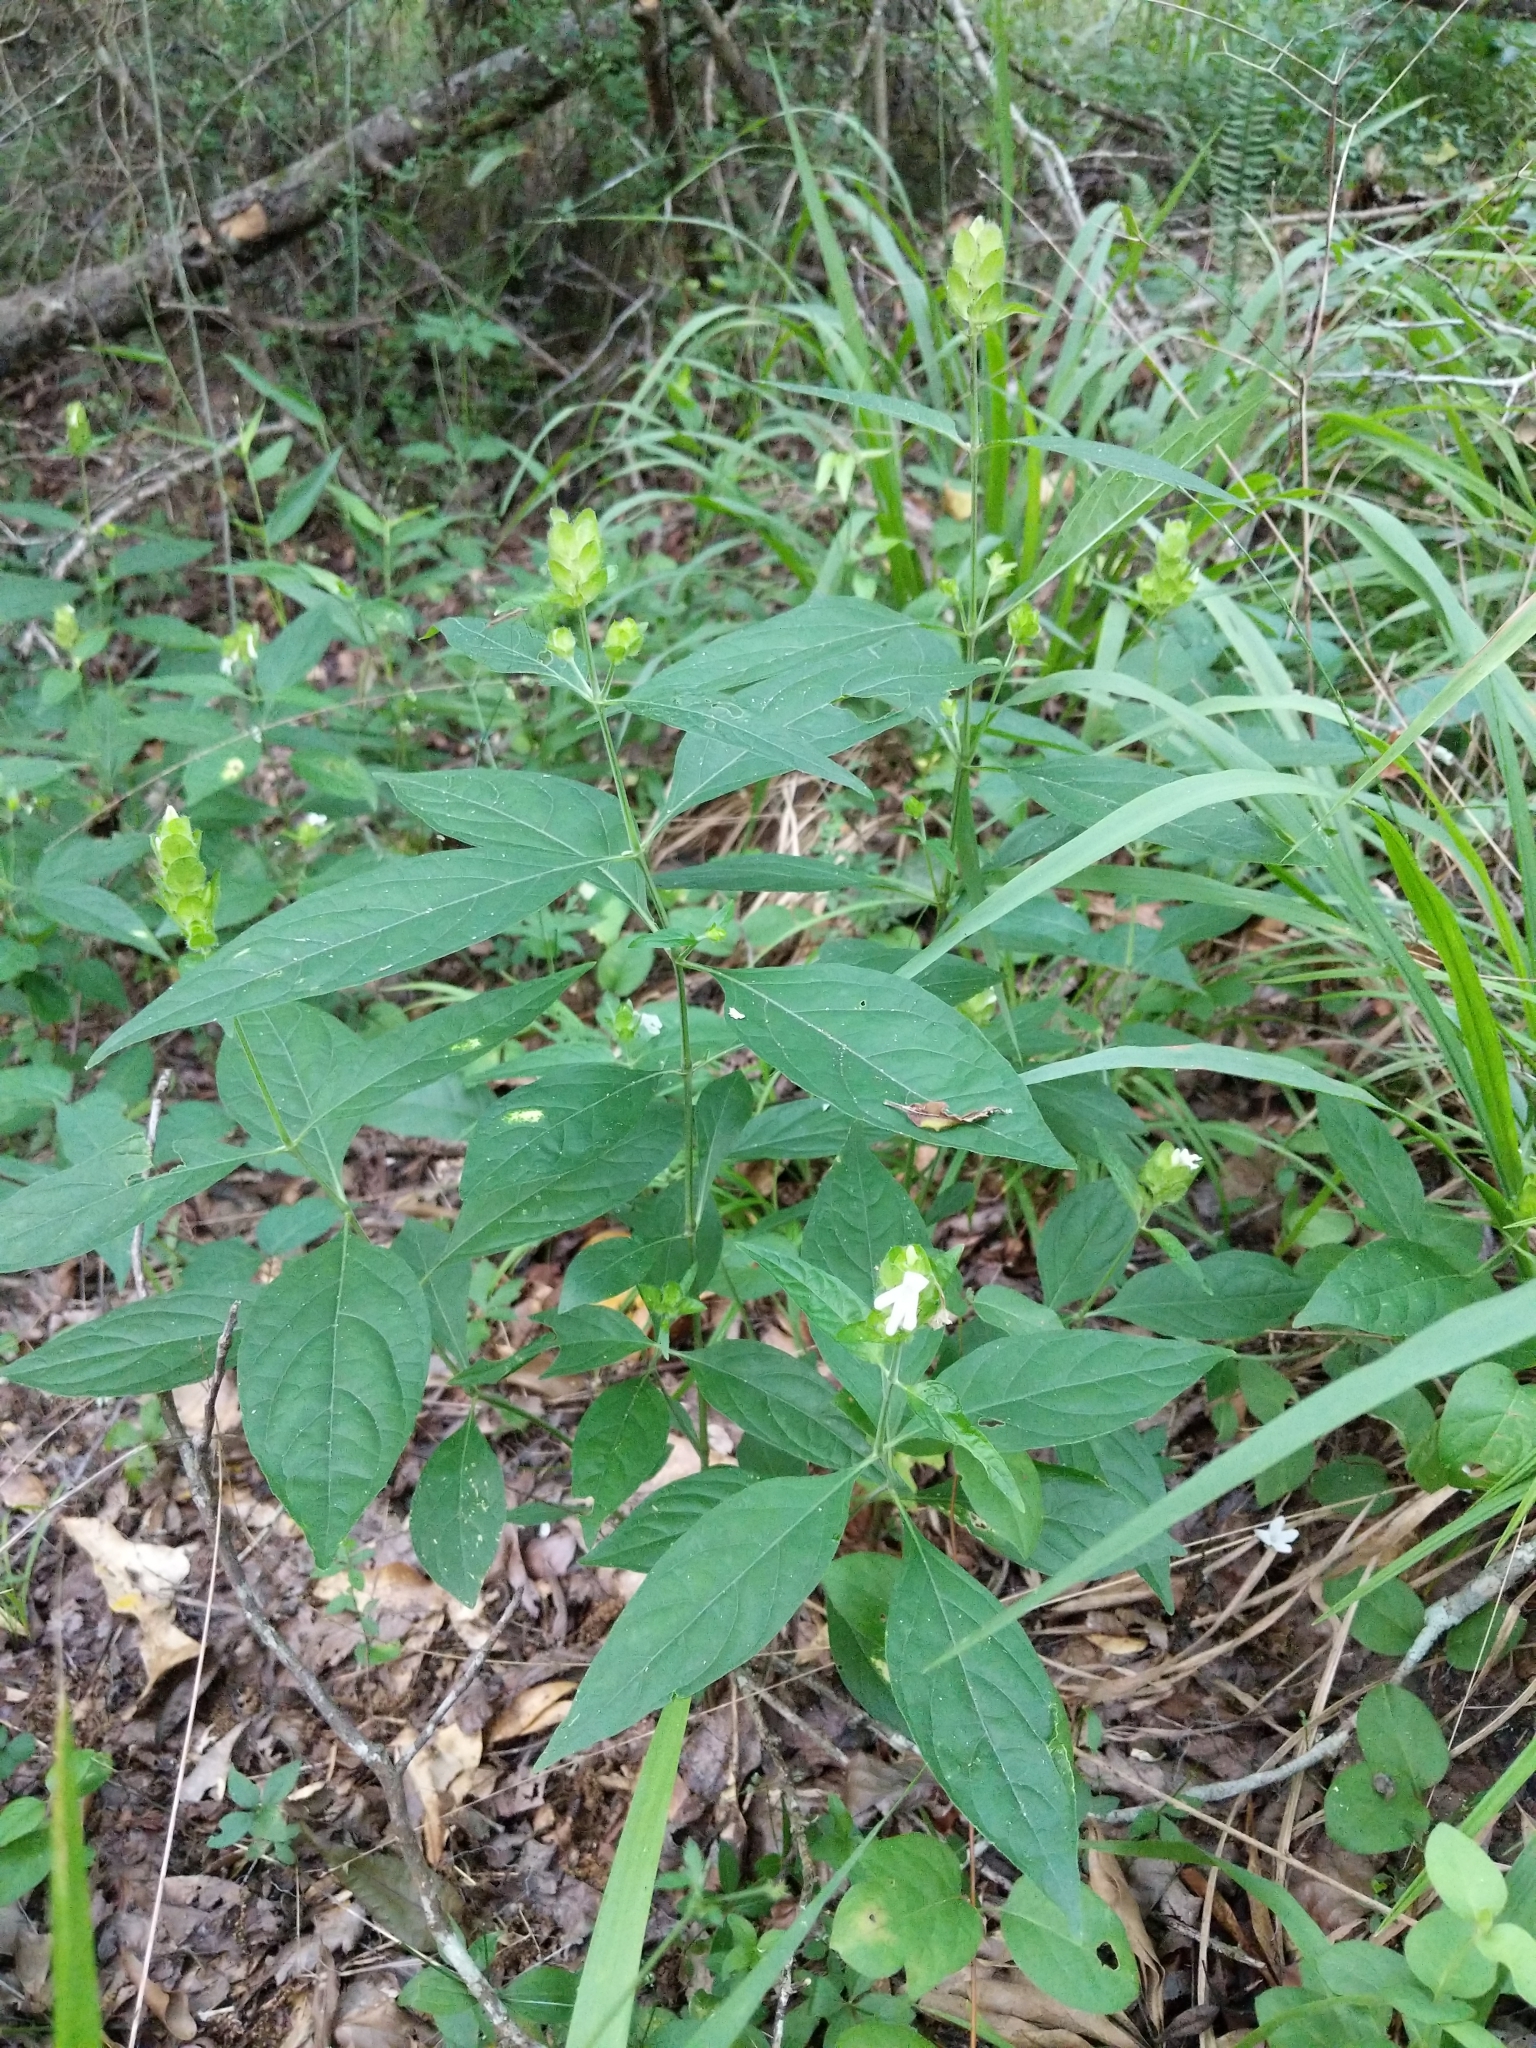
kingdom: Plantae
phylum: Tracheophyta
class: Magnoliopsida
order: Lamiales
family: Acanthaceae
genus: Yeatesia
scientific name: Yeatesia viridiflora
